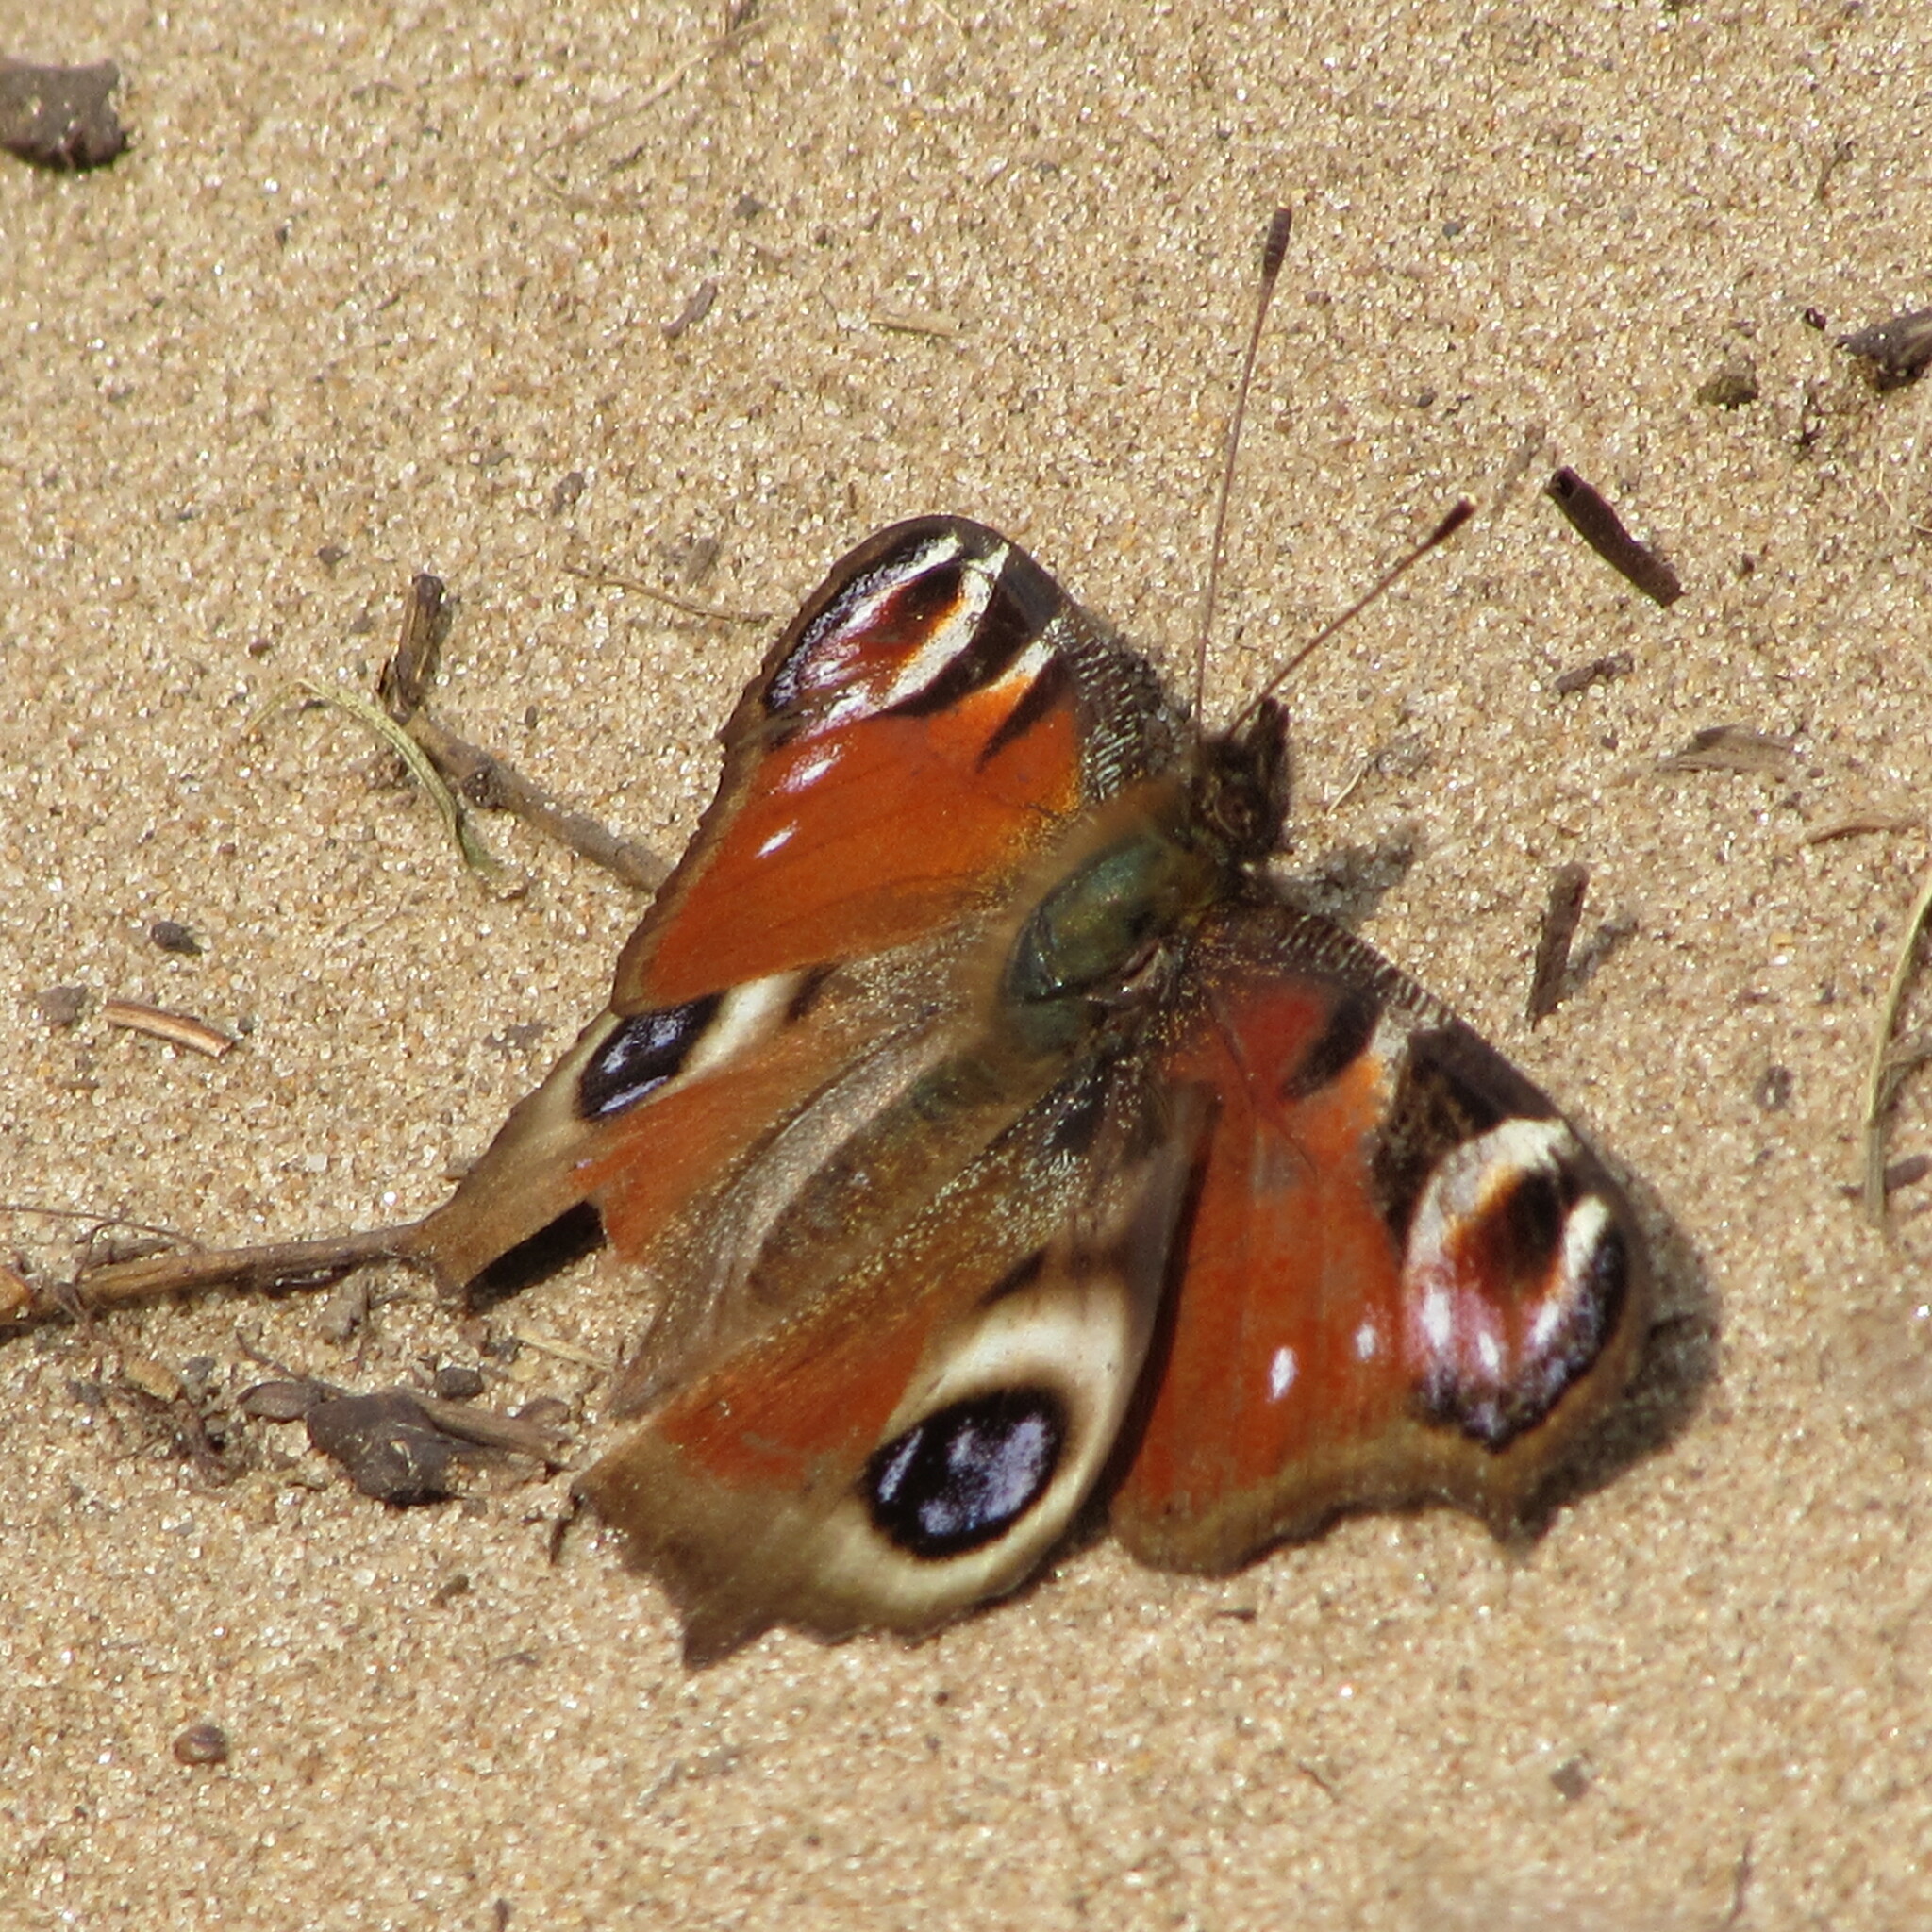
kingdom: Animalia
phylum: Arthropoda
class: Insecta
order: Lepidoptera
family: Nymphalidae
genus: Aglais
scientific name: Aglais io
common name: Peacock
